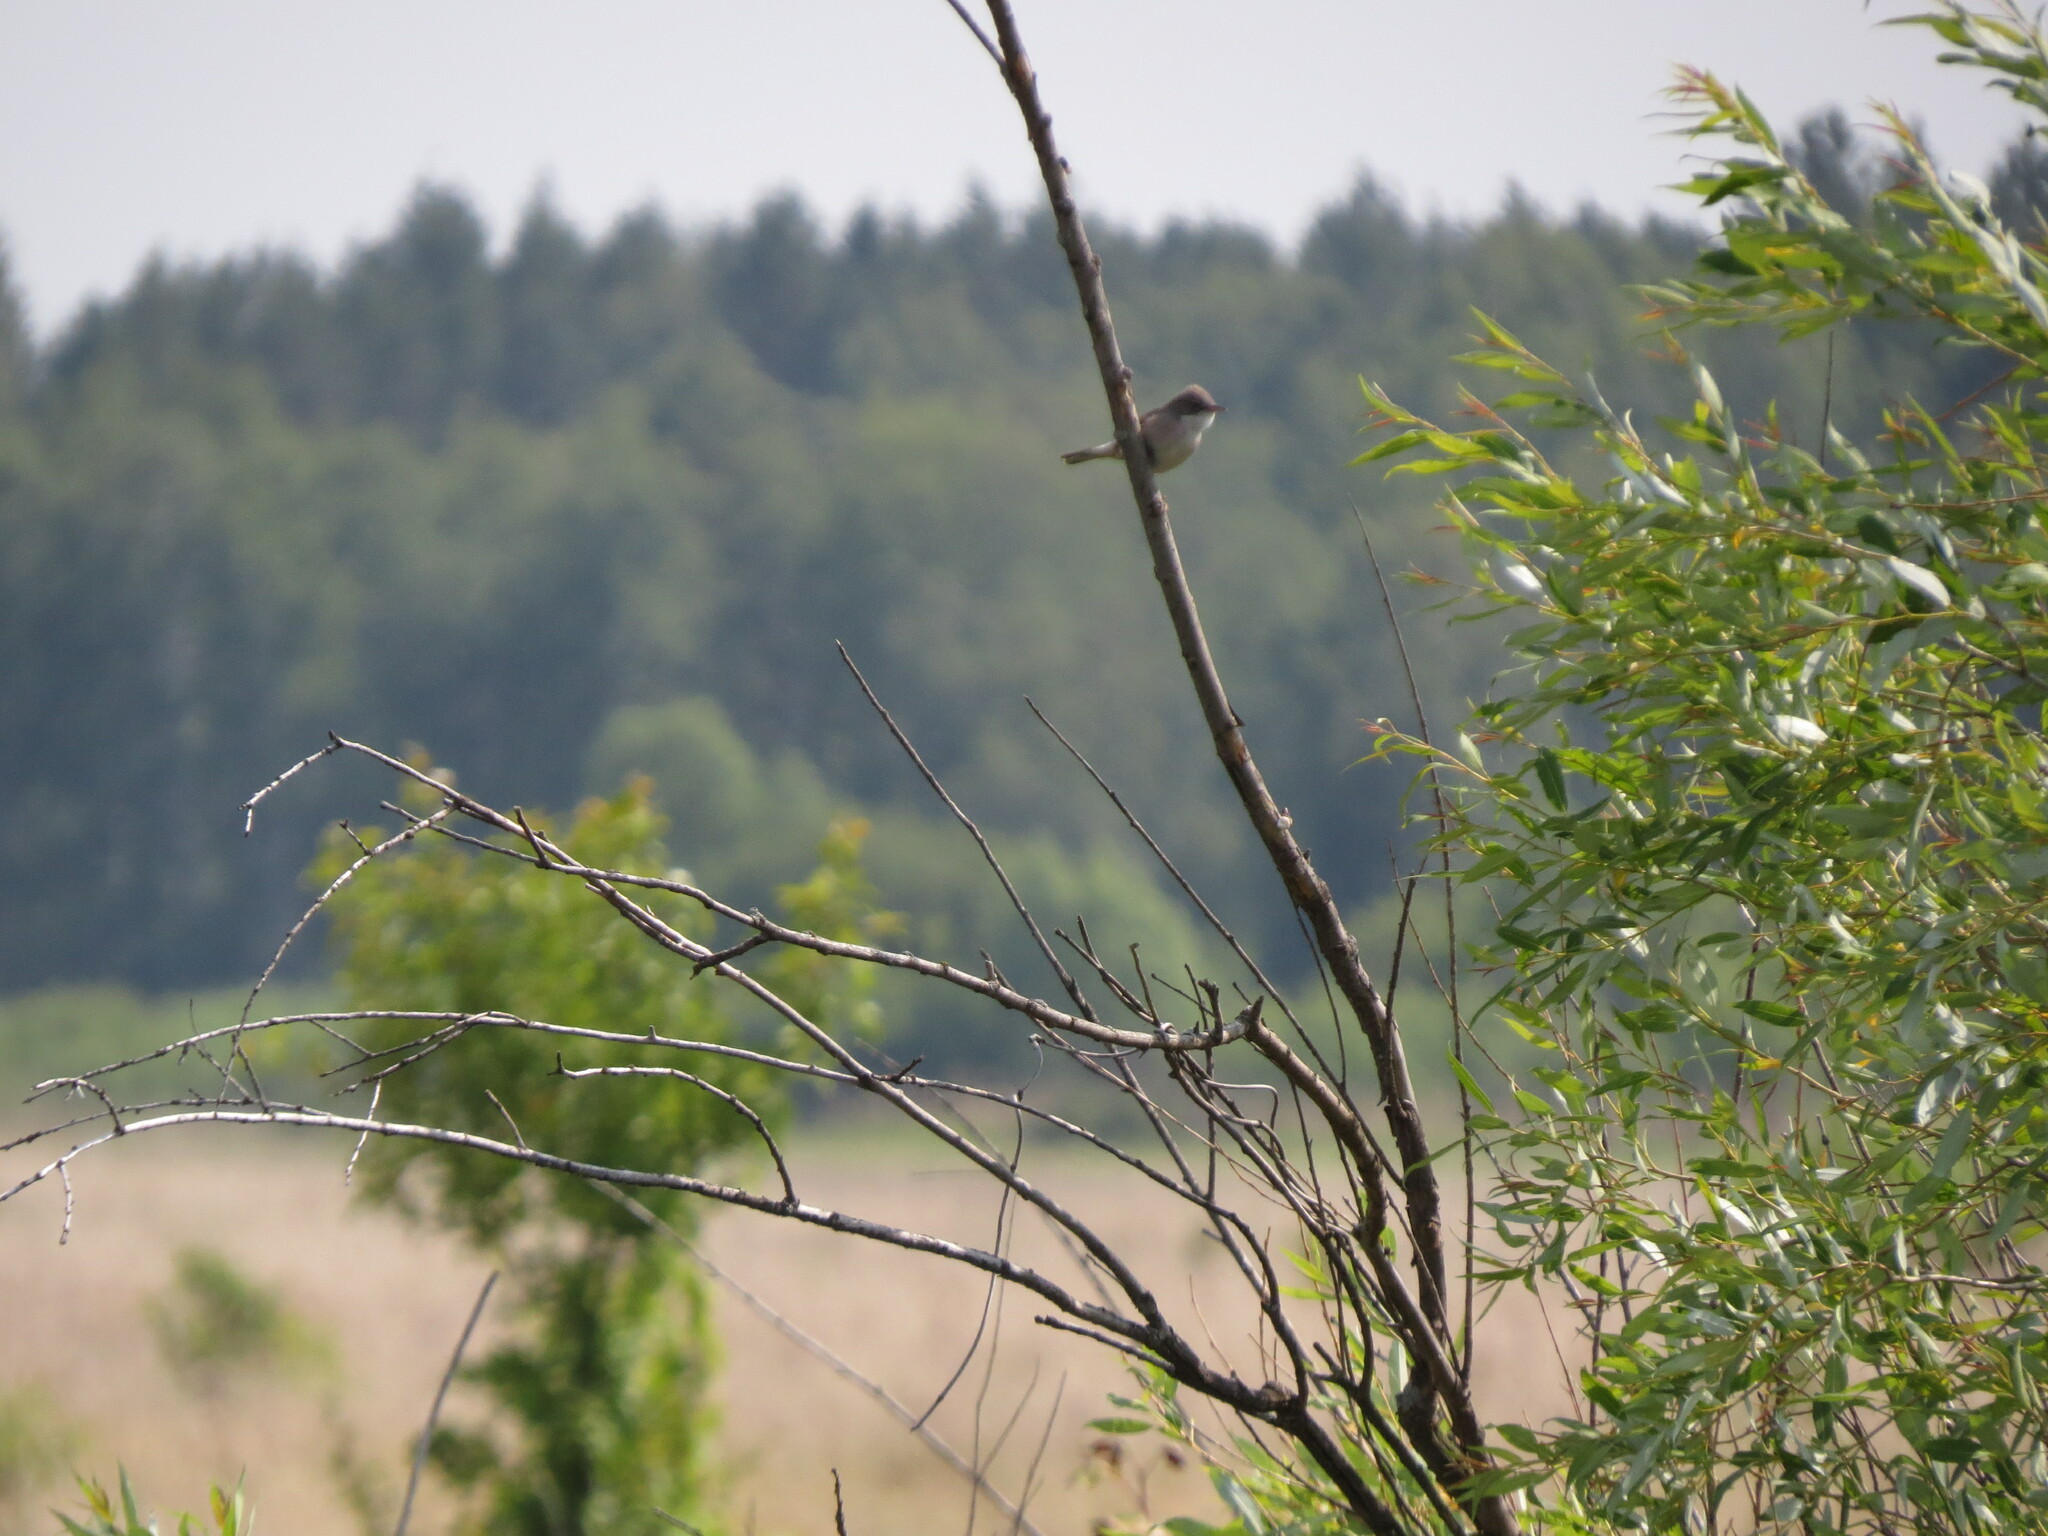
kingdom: Animalia
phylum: Chordata
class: Aves
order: Passeriformes
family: Sylviidae
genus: Sylvia
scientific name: Sylvia communis
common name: Common whitethroat
